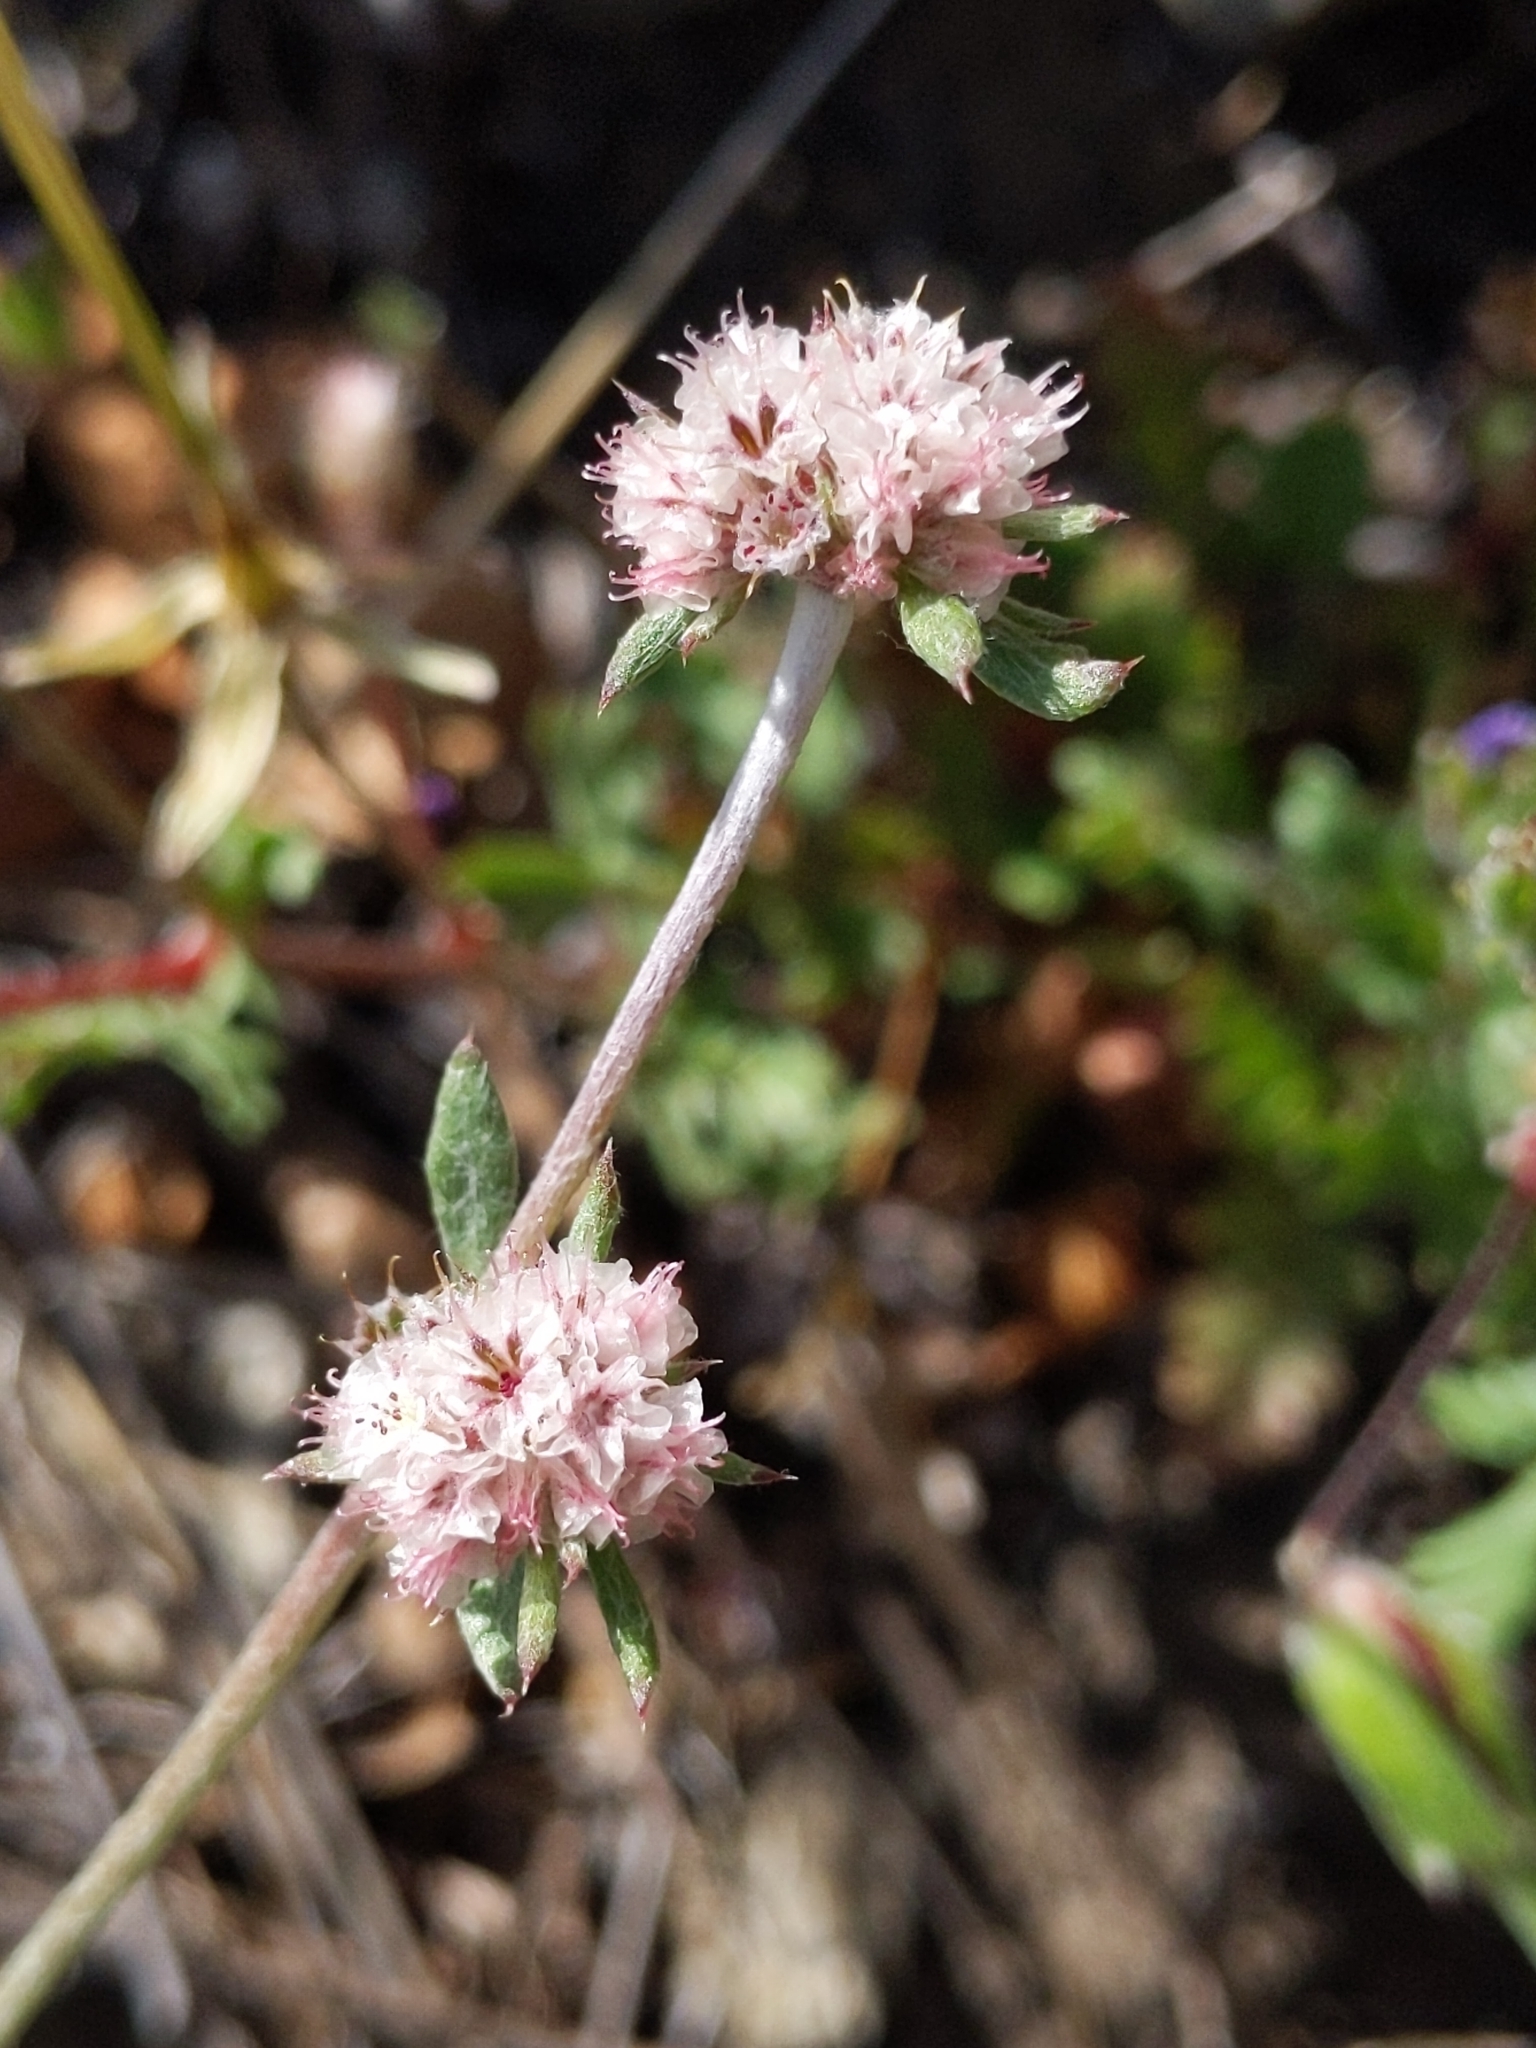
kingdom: Plantae
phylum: Tracheophyta
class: Magnoliopsida
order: Caryophyllales
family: Polygonaceae
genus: Chorizanthe
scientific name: Chorizanthe membranacea
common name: Pink spineflower
